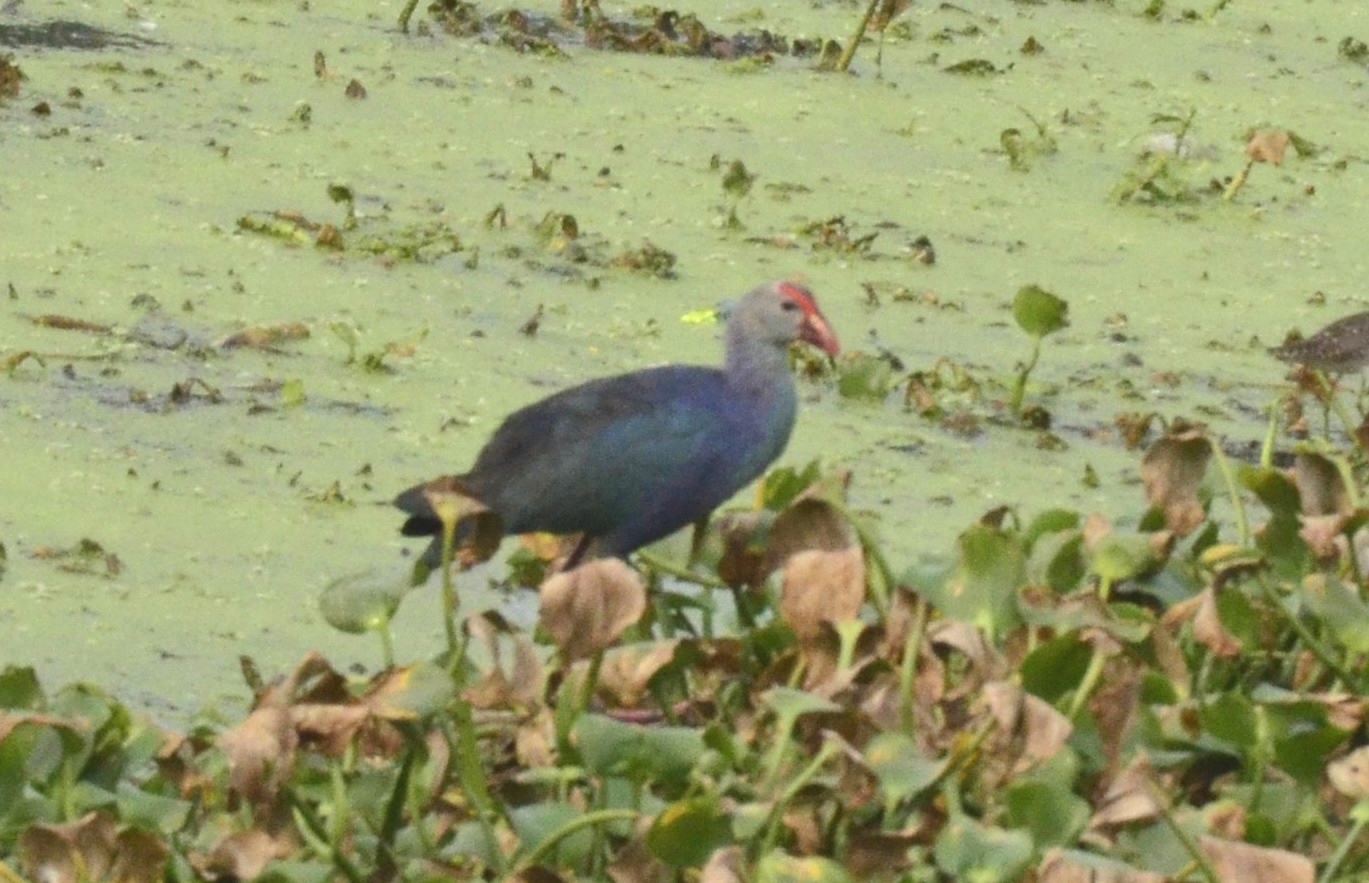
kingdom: Animalia
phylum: Chordata
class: Aves
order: Gruiformes
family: Rallidae
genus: Porphyrio
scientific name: Porphyrio porphyrio
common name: Purple swamphen
